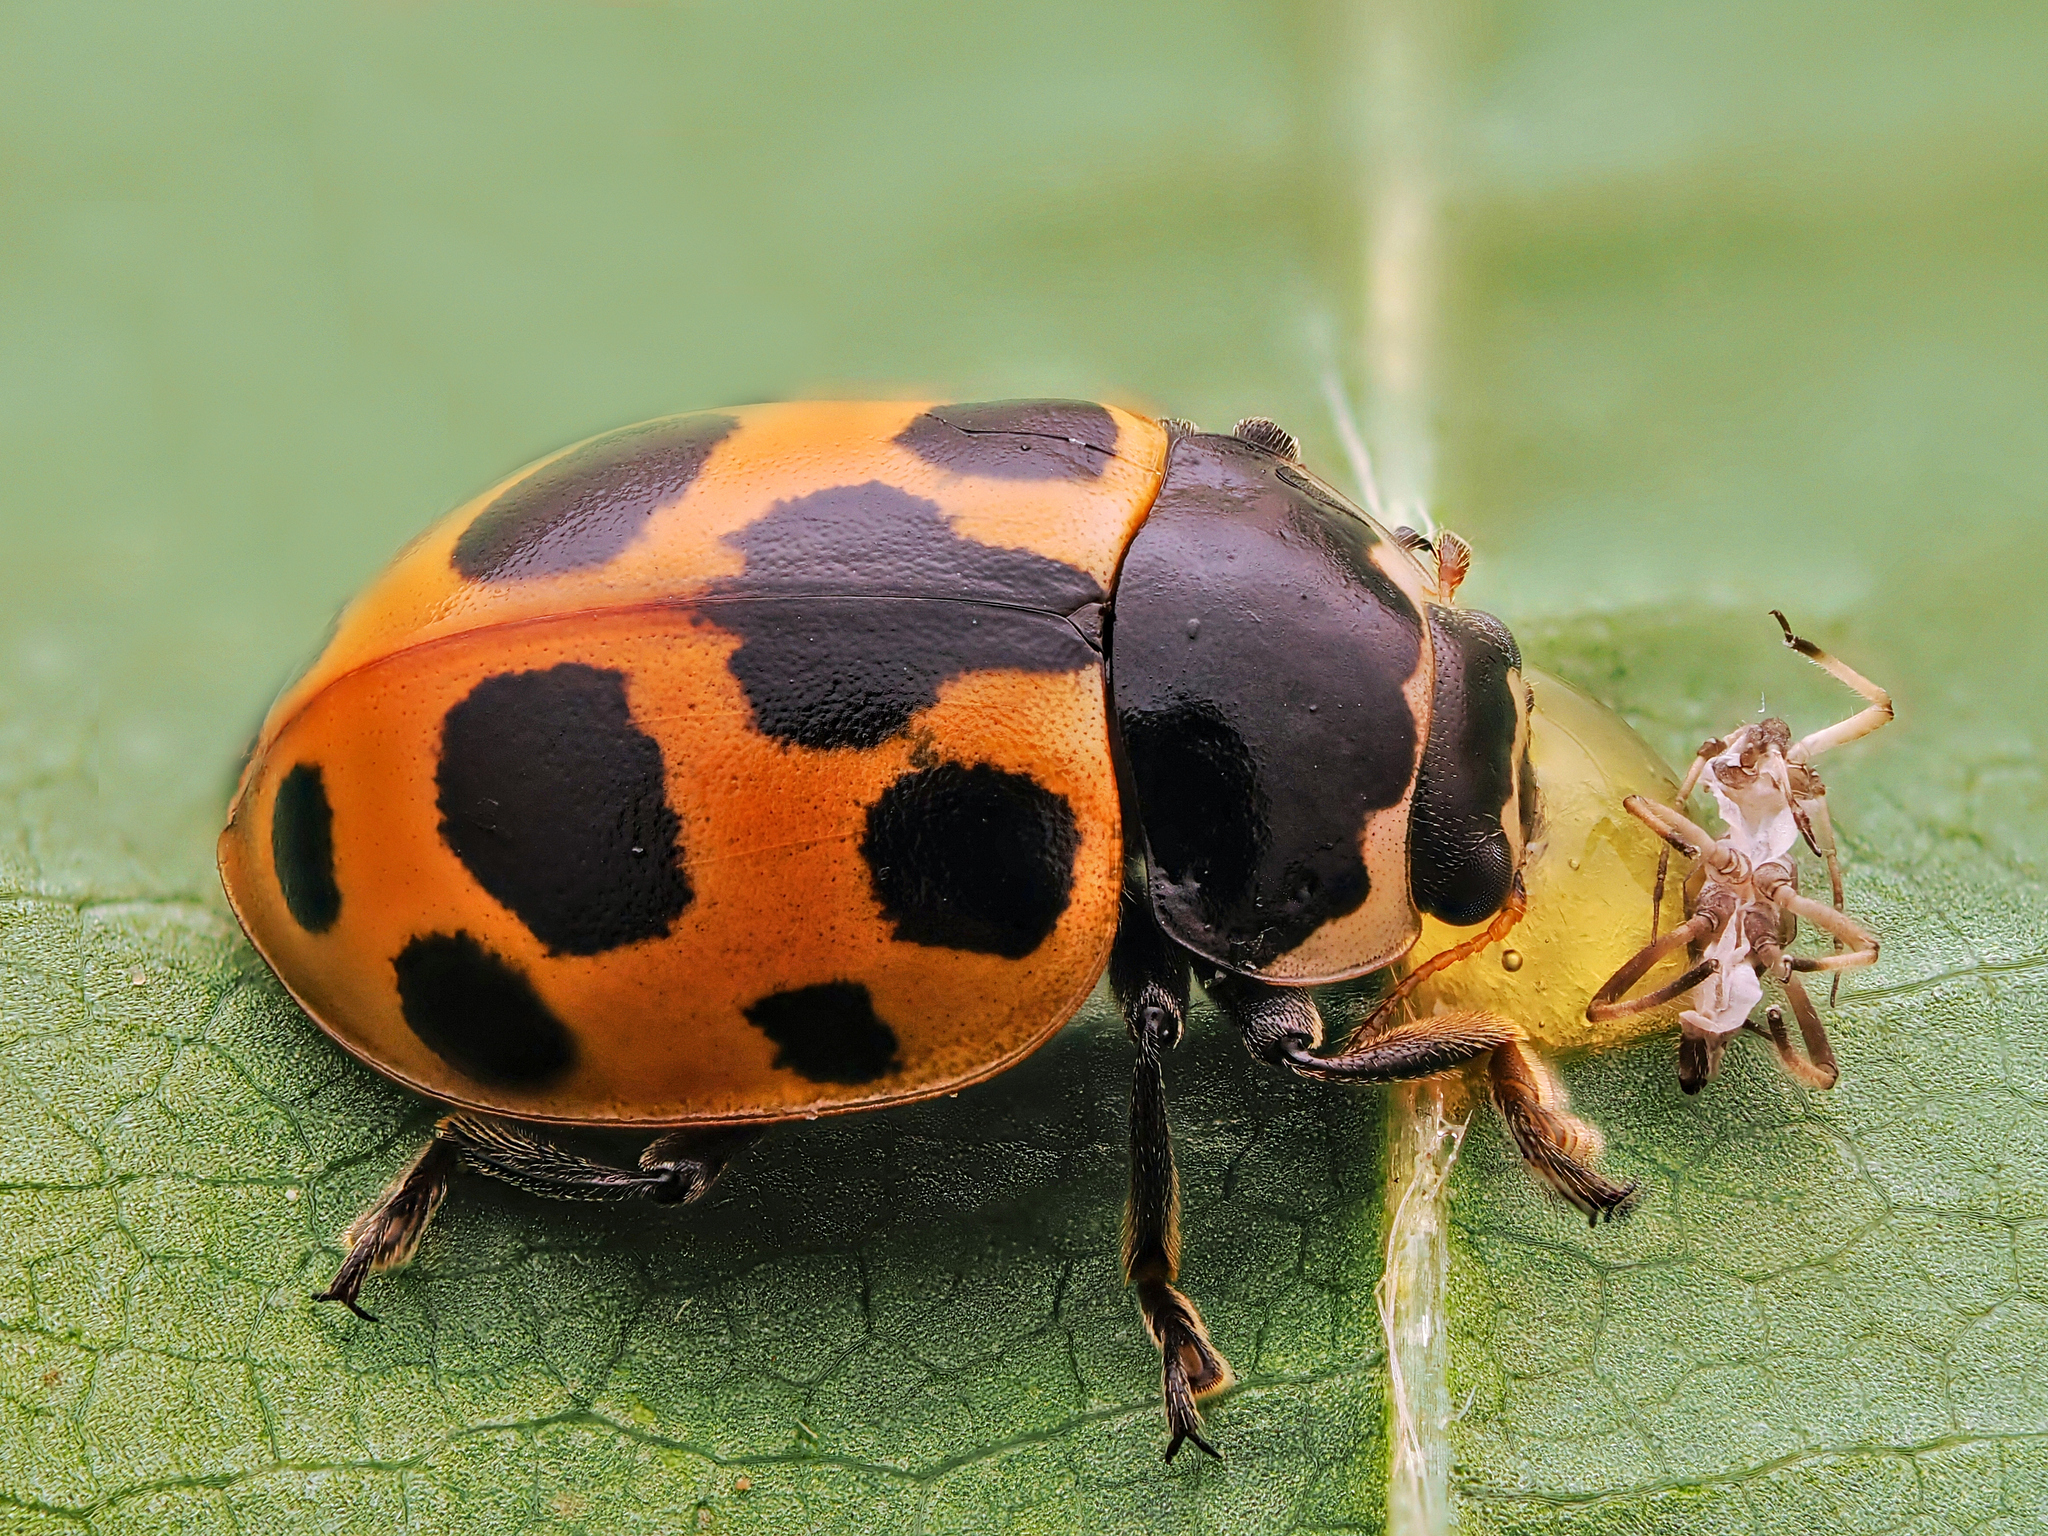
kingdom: Animalia
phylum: Arthropoda
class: Insecta
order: Coleoptera
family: Coccinellidae
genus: Ceratomegilla
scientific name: Ceratomegilla notata
